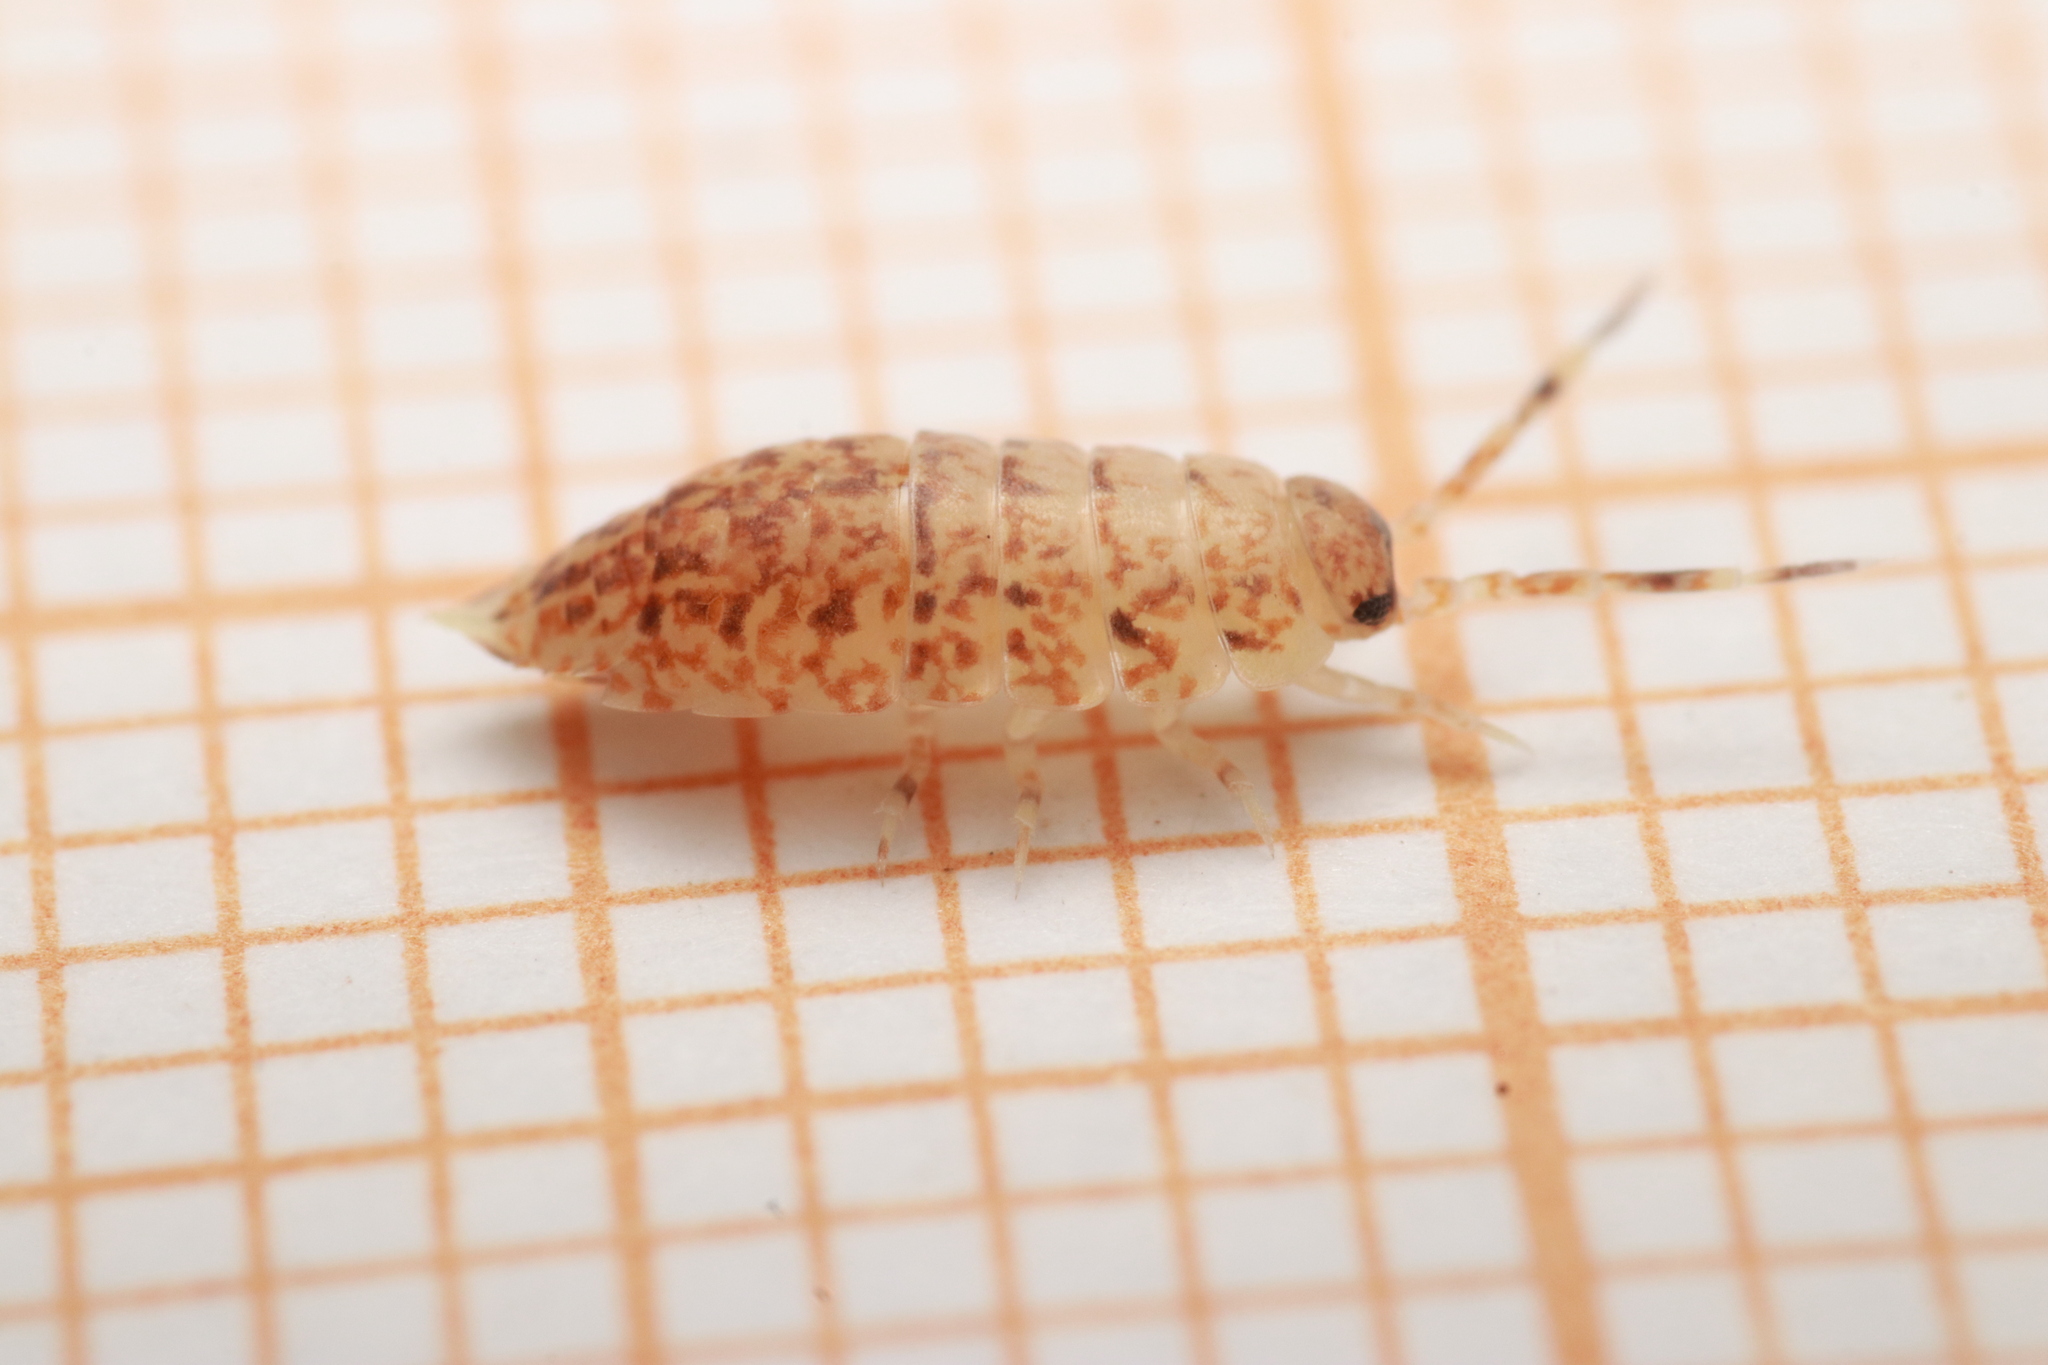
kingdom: Animalia
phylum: Arthropoda
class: Malacostraca
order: Isopoda
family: Porcellionidae
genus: Caeroplastes
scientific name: Caeroplastes porphyrivagus
